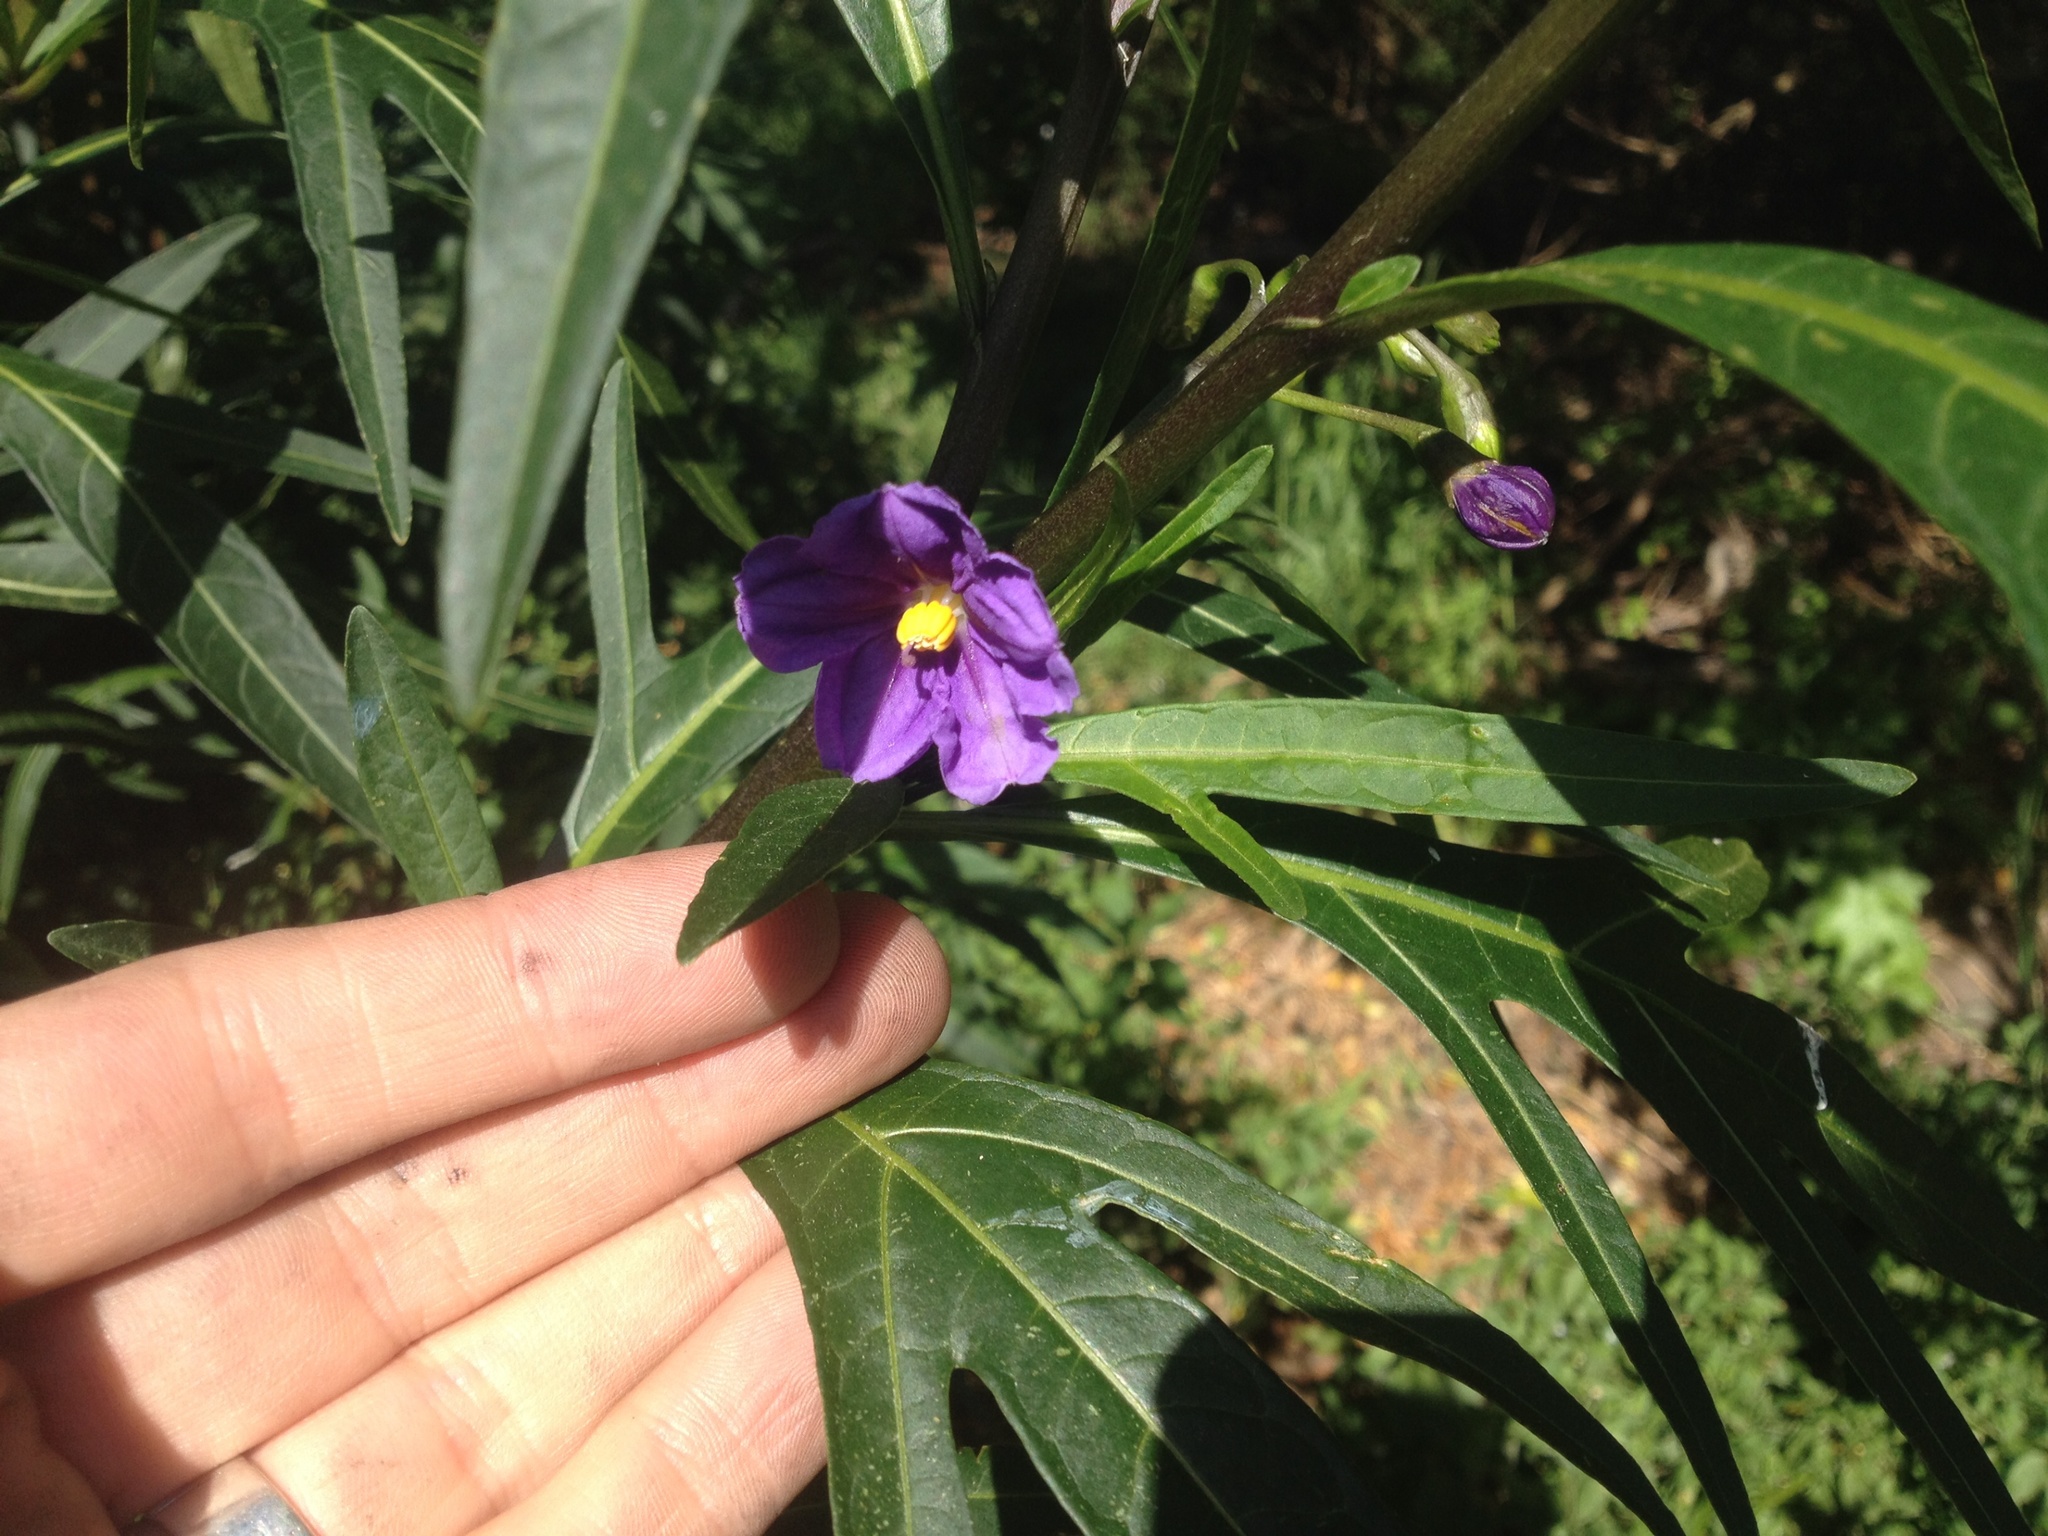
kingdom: Plantae
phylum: Tracheophyta
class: Magnoliopsida
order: Solanales
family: Solanaceae
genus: Solanum
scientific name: Solanum laciniatum
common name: Kangaroo-apple
